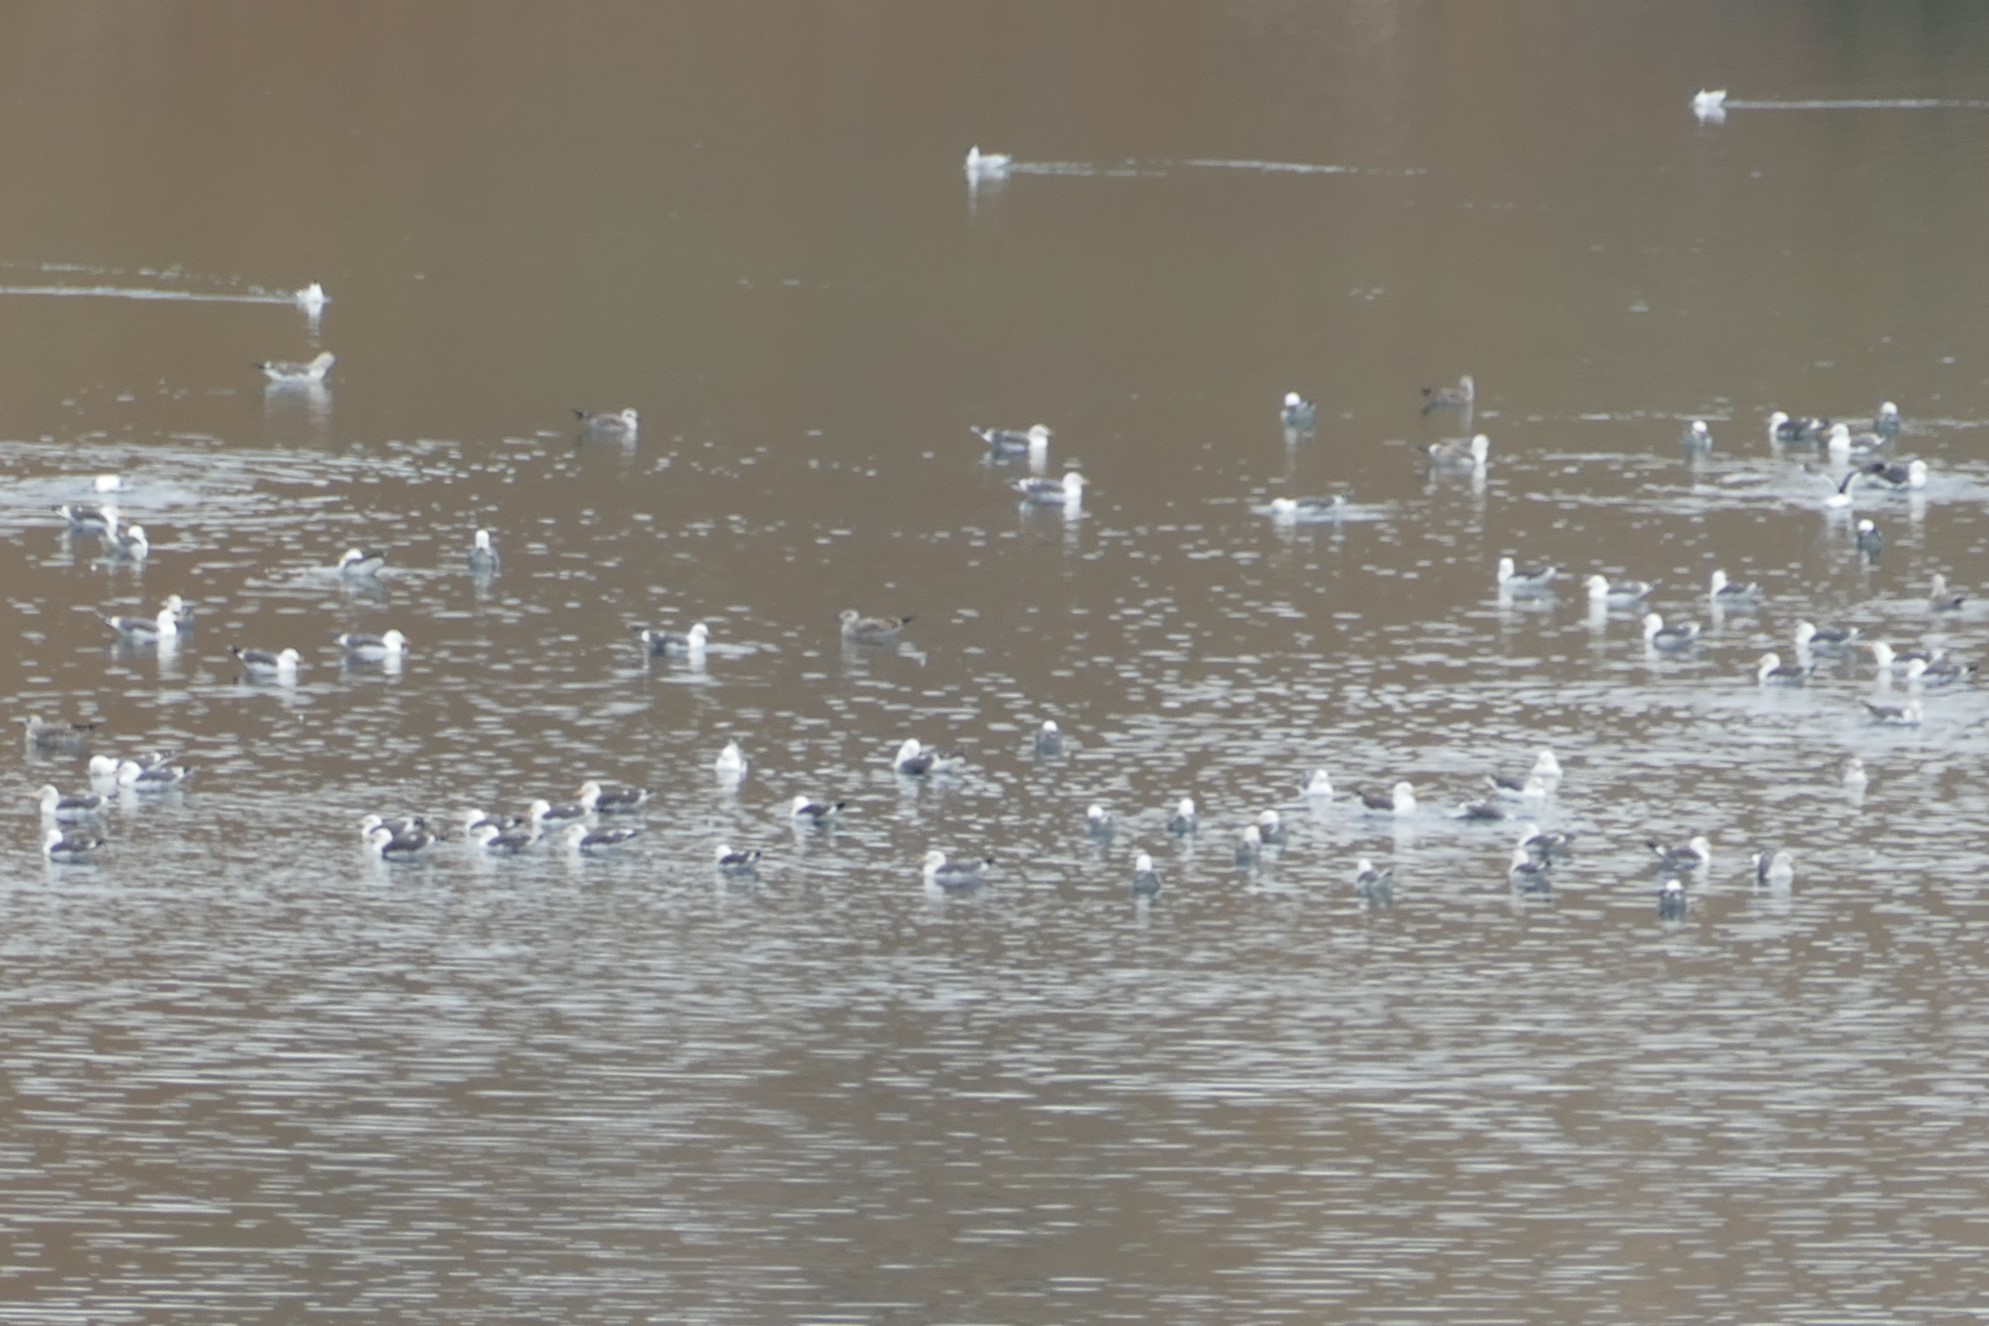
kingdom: Animalia
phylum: Chordata
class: Aves
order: Charadriiformes
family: Laridae
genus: Larus
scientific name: Larus fuscus
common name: Lesser black-backed gull
